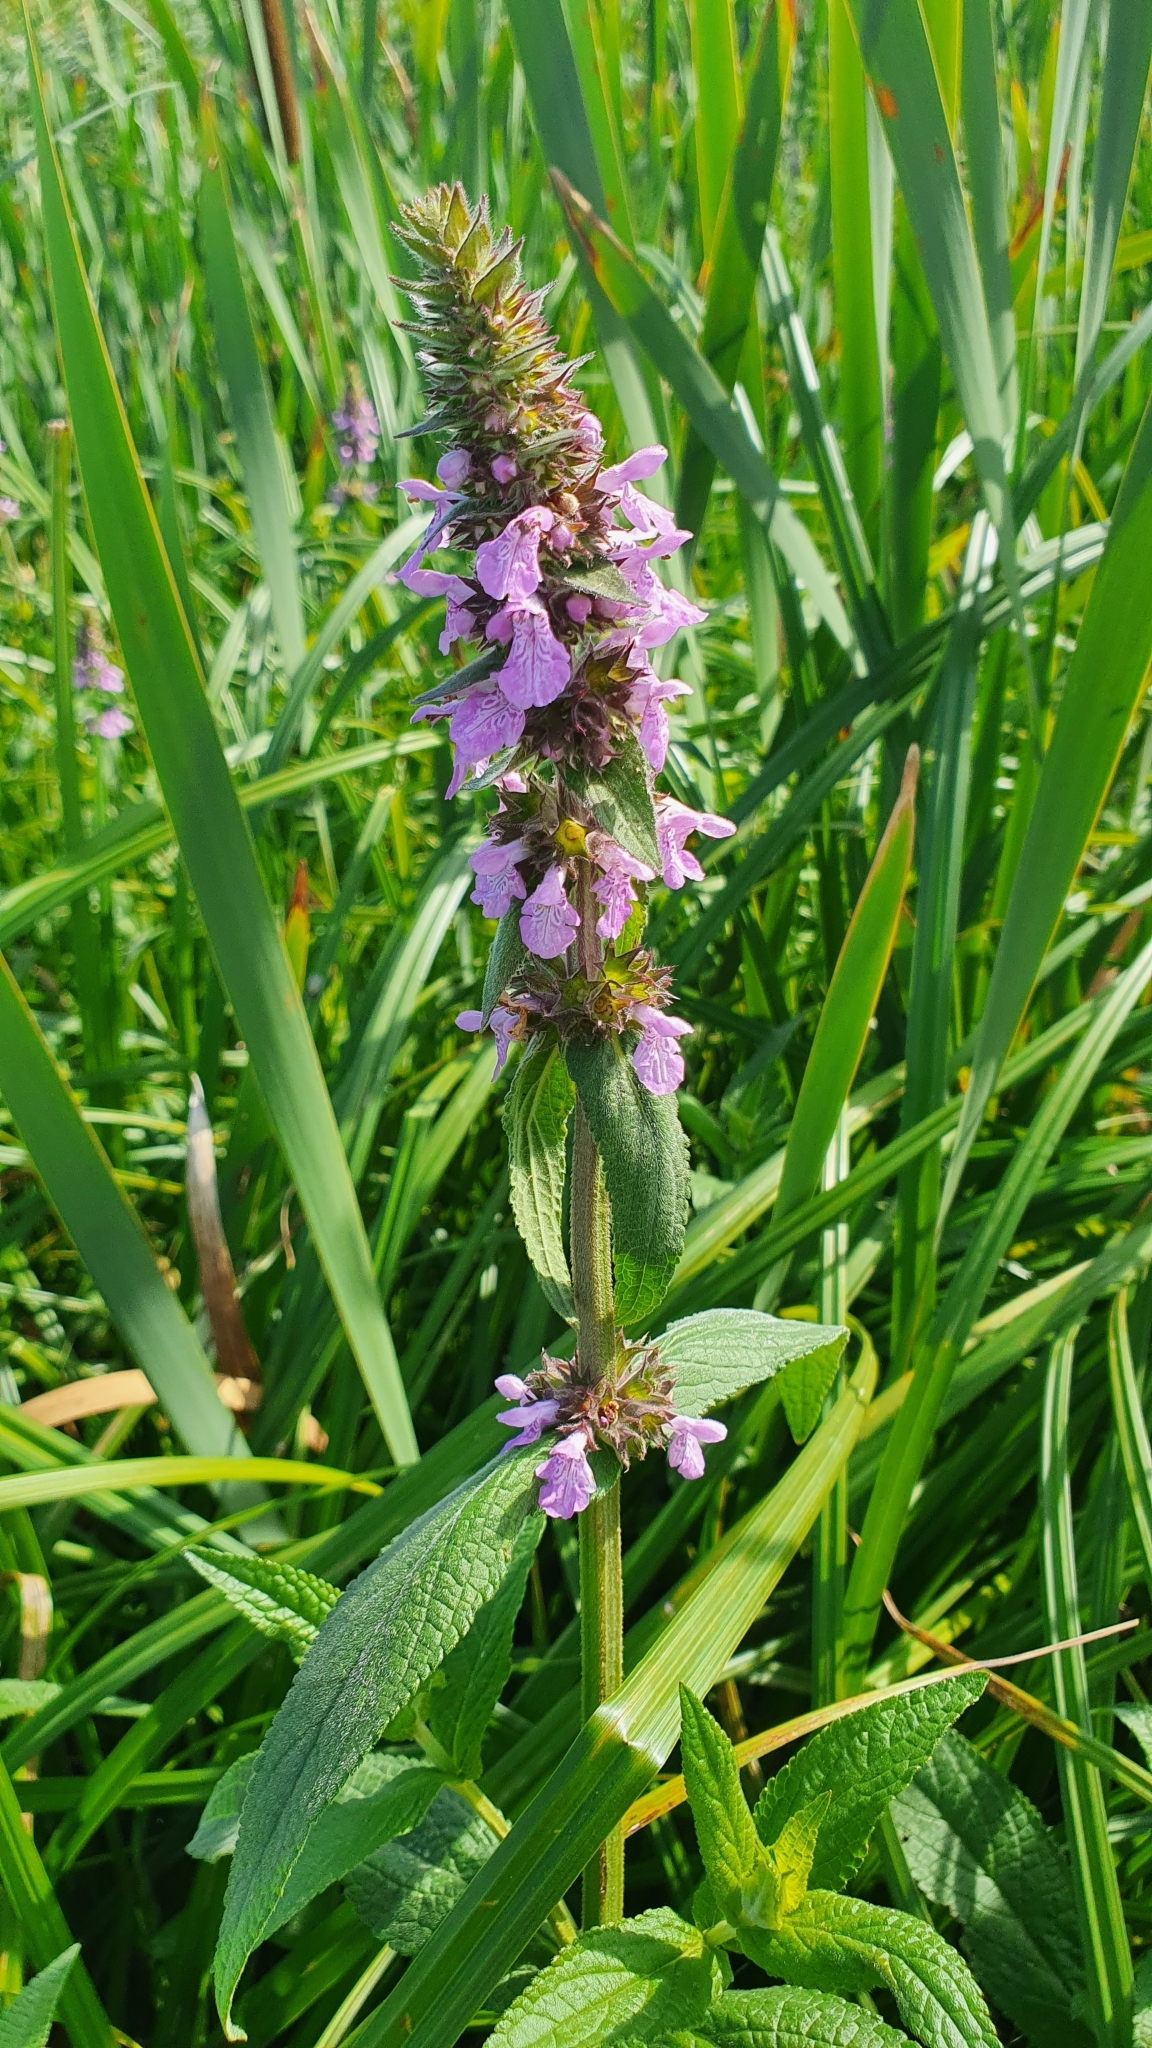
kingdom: Plantae
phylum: Tracheophyta
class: Magnoliopsida
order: Lamiales
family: Lamiaceae
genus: Stachys
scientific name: Stachys palustris
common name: Marsh woundwort
